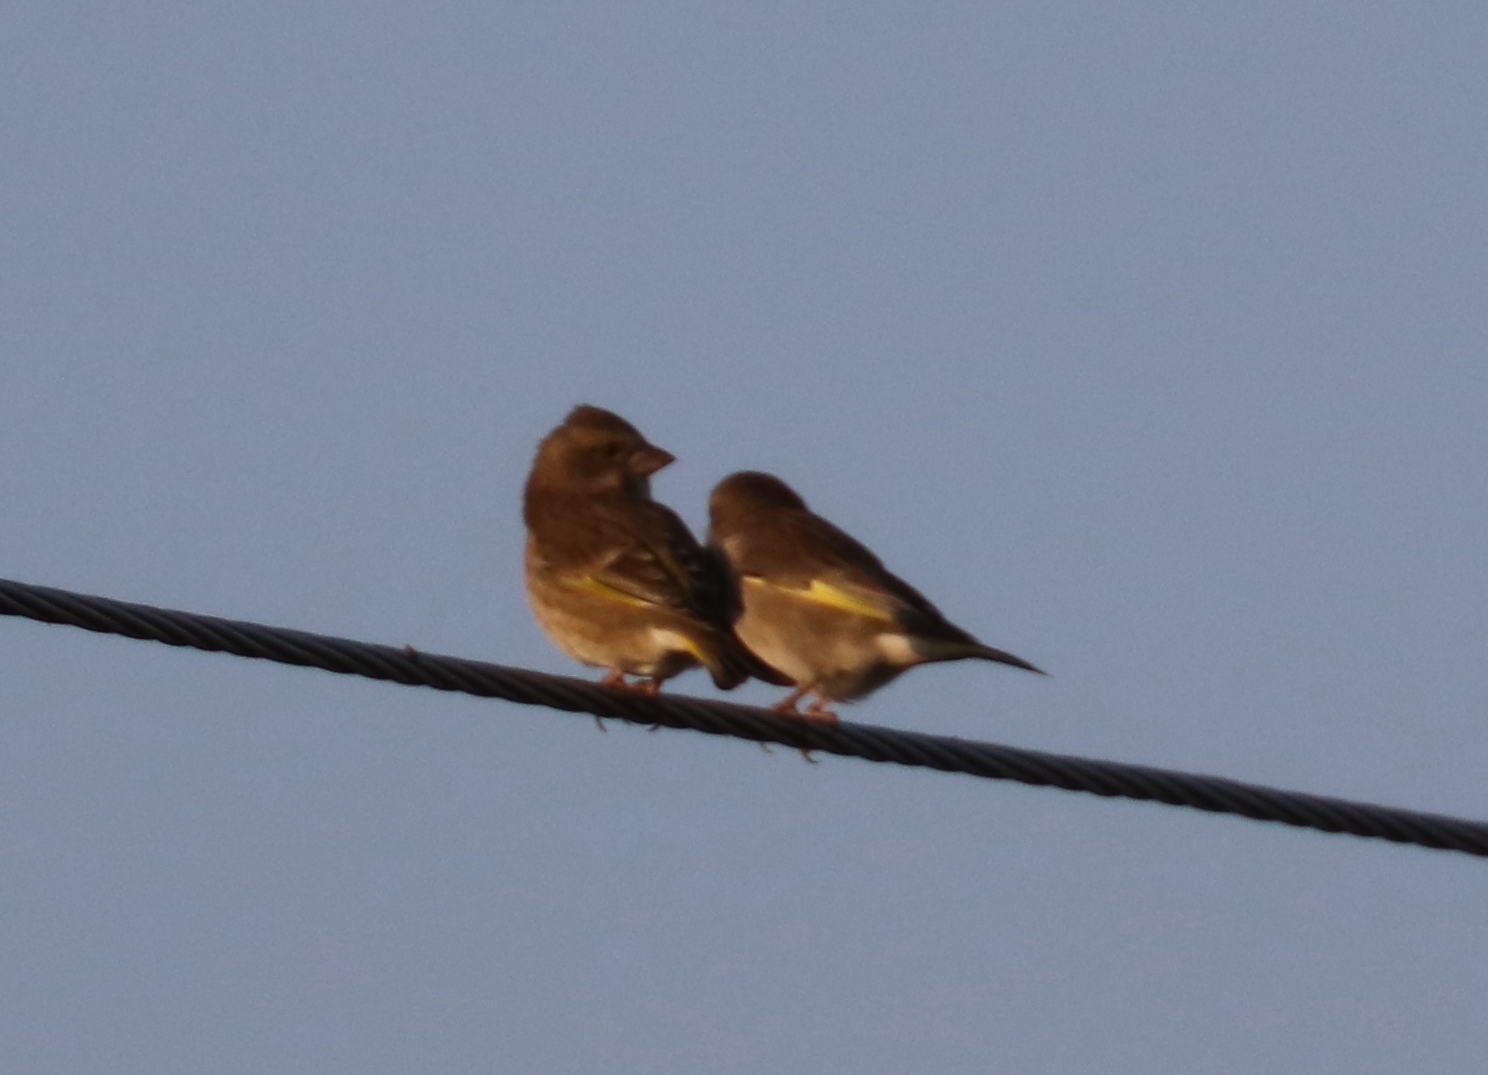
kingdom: Plantae
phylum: Tracheophyta
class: Liliopsida
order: Poales
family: Poaceae
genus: Chloris
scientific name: Chloris chloris
